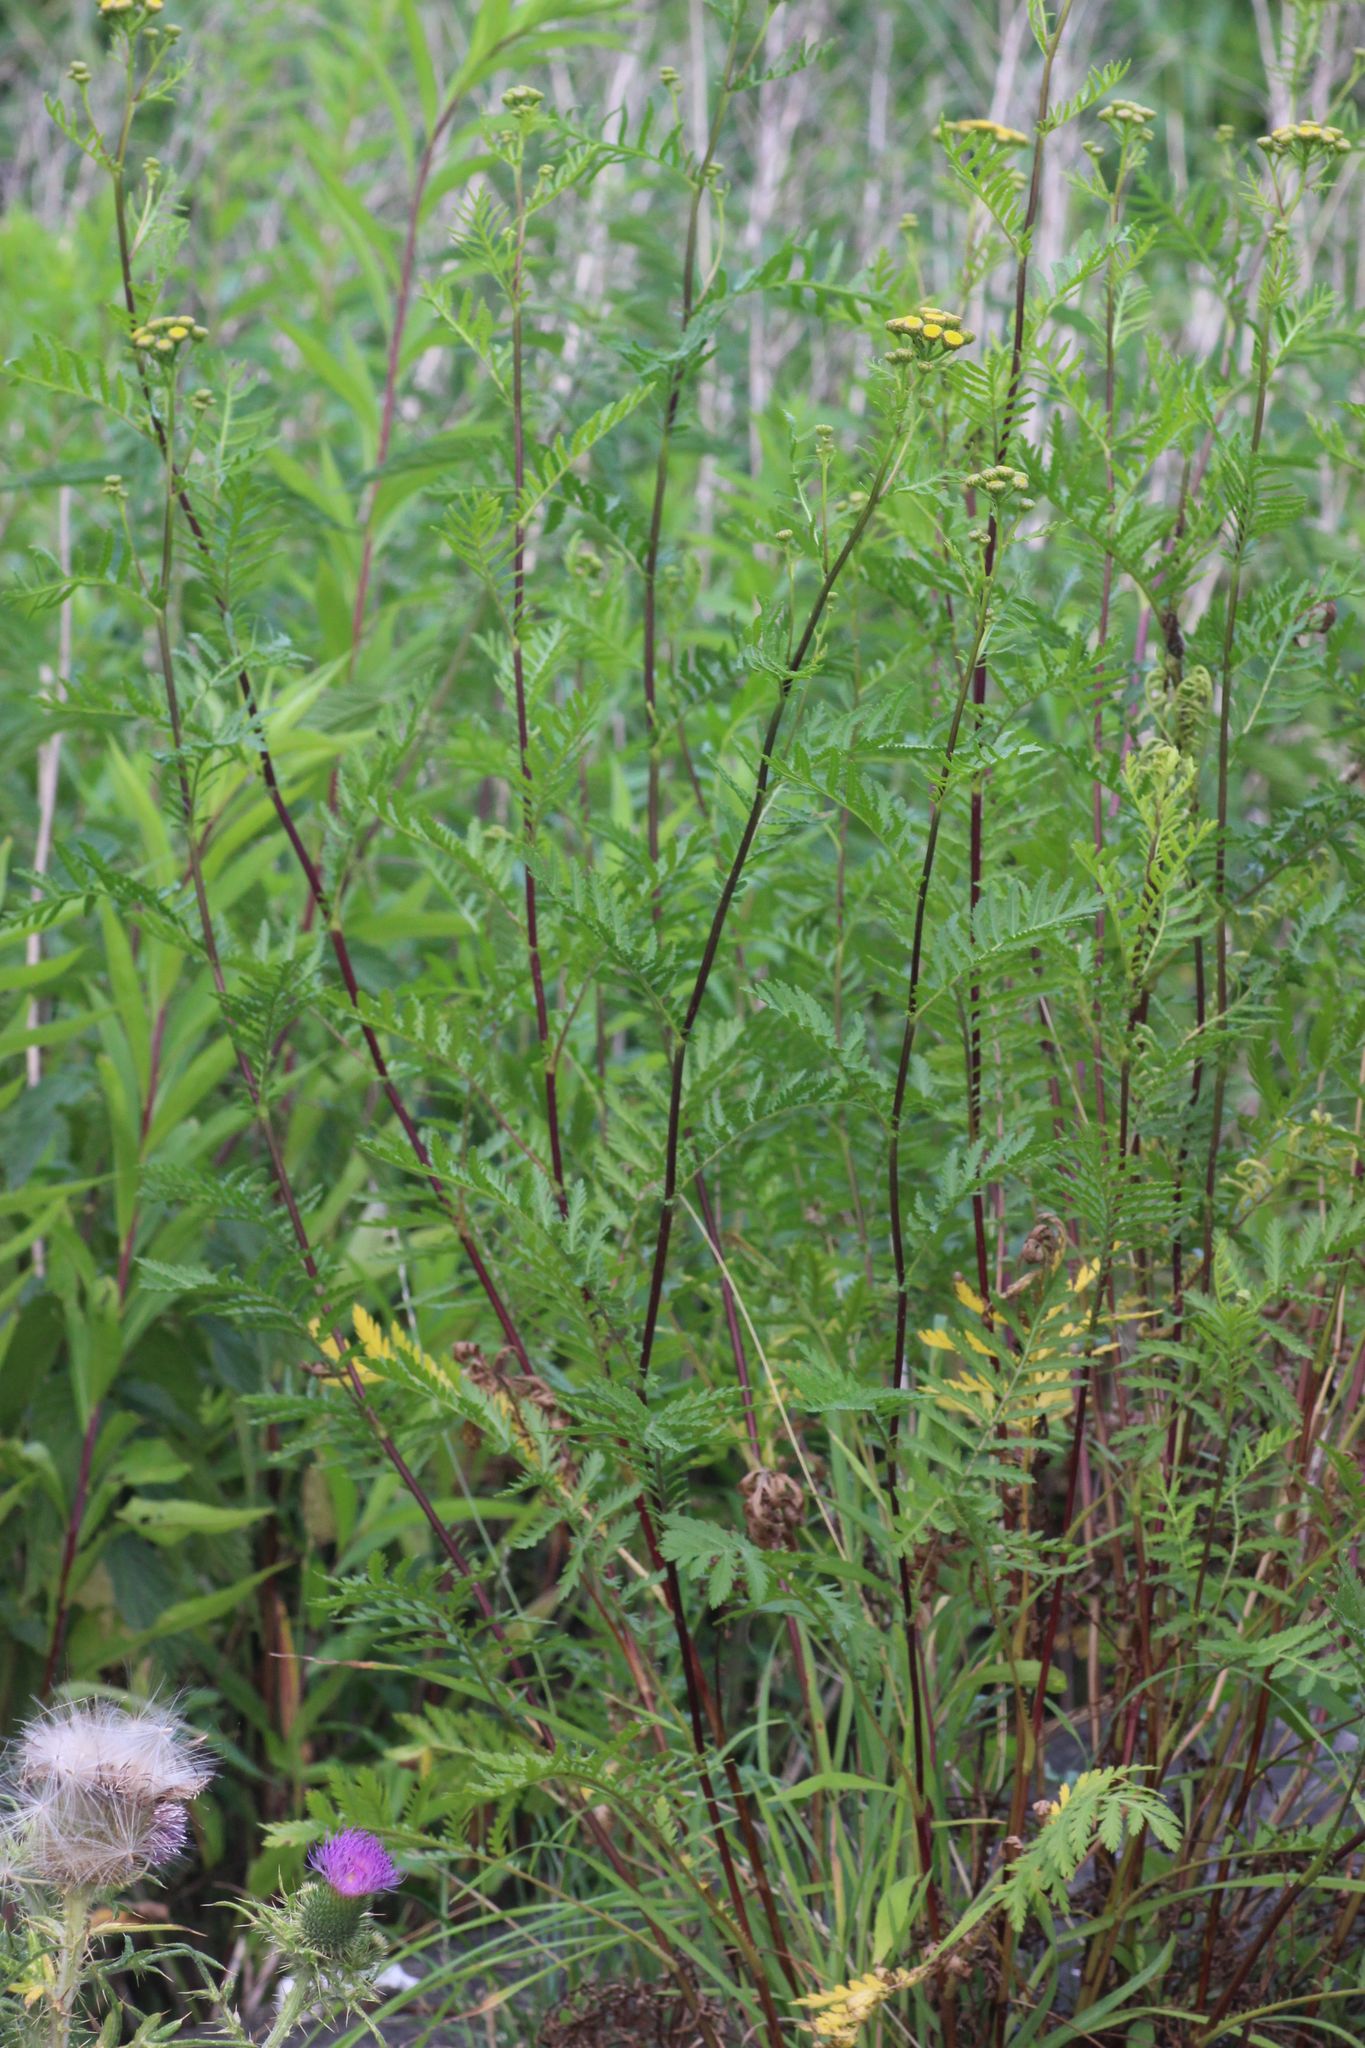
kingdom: Plantae
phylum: Tracheophyta
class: Magnoliopsida
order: Asterales
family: Asteraceae
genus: Tanacetum
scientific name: Tanacetum vulgare
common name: Common tansy
